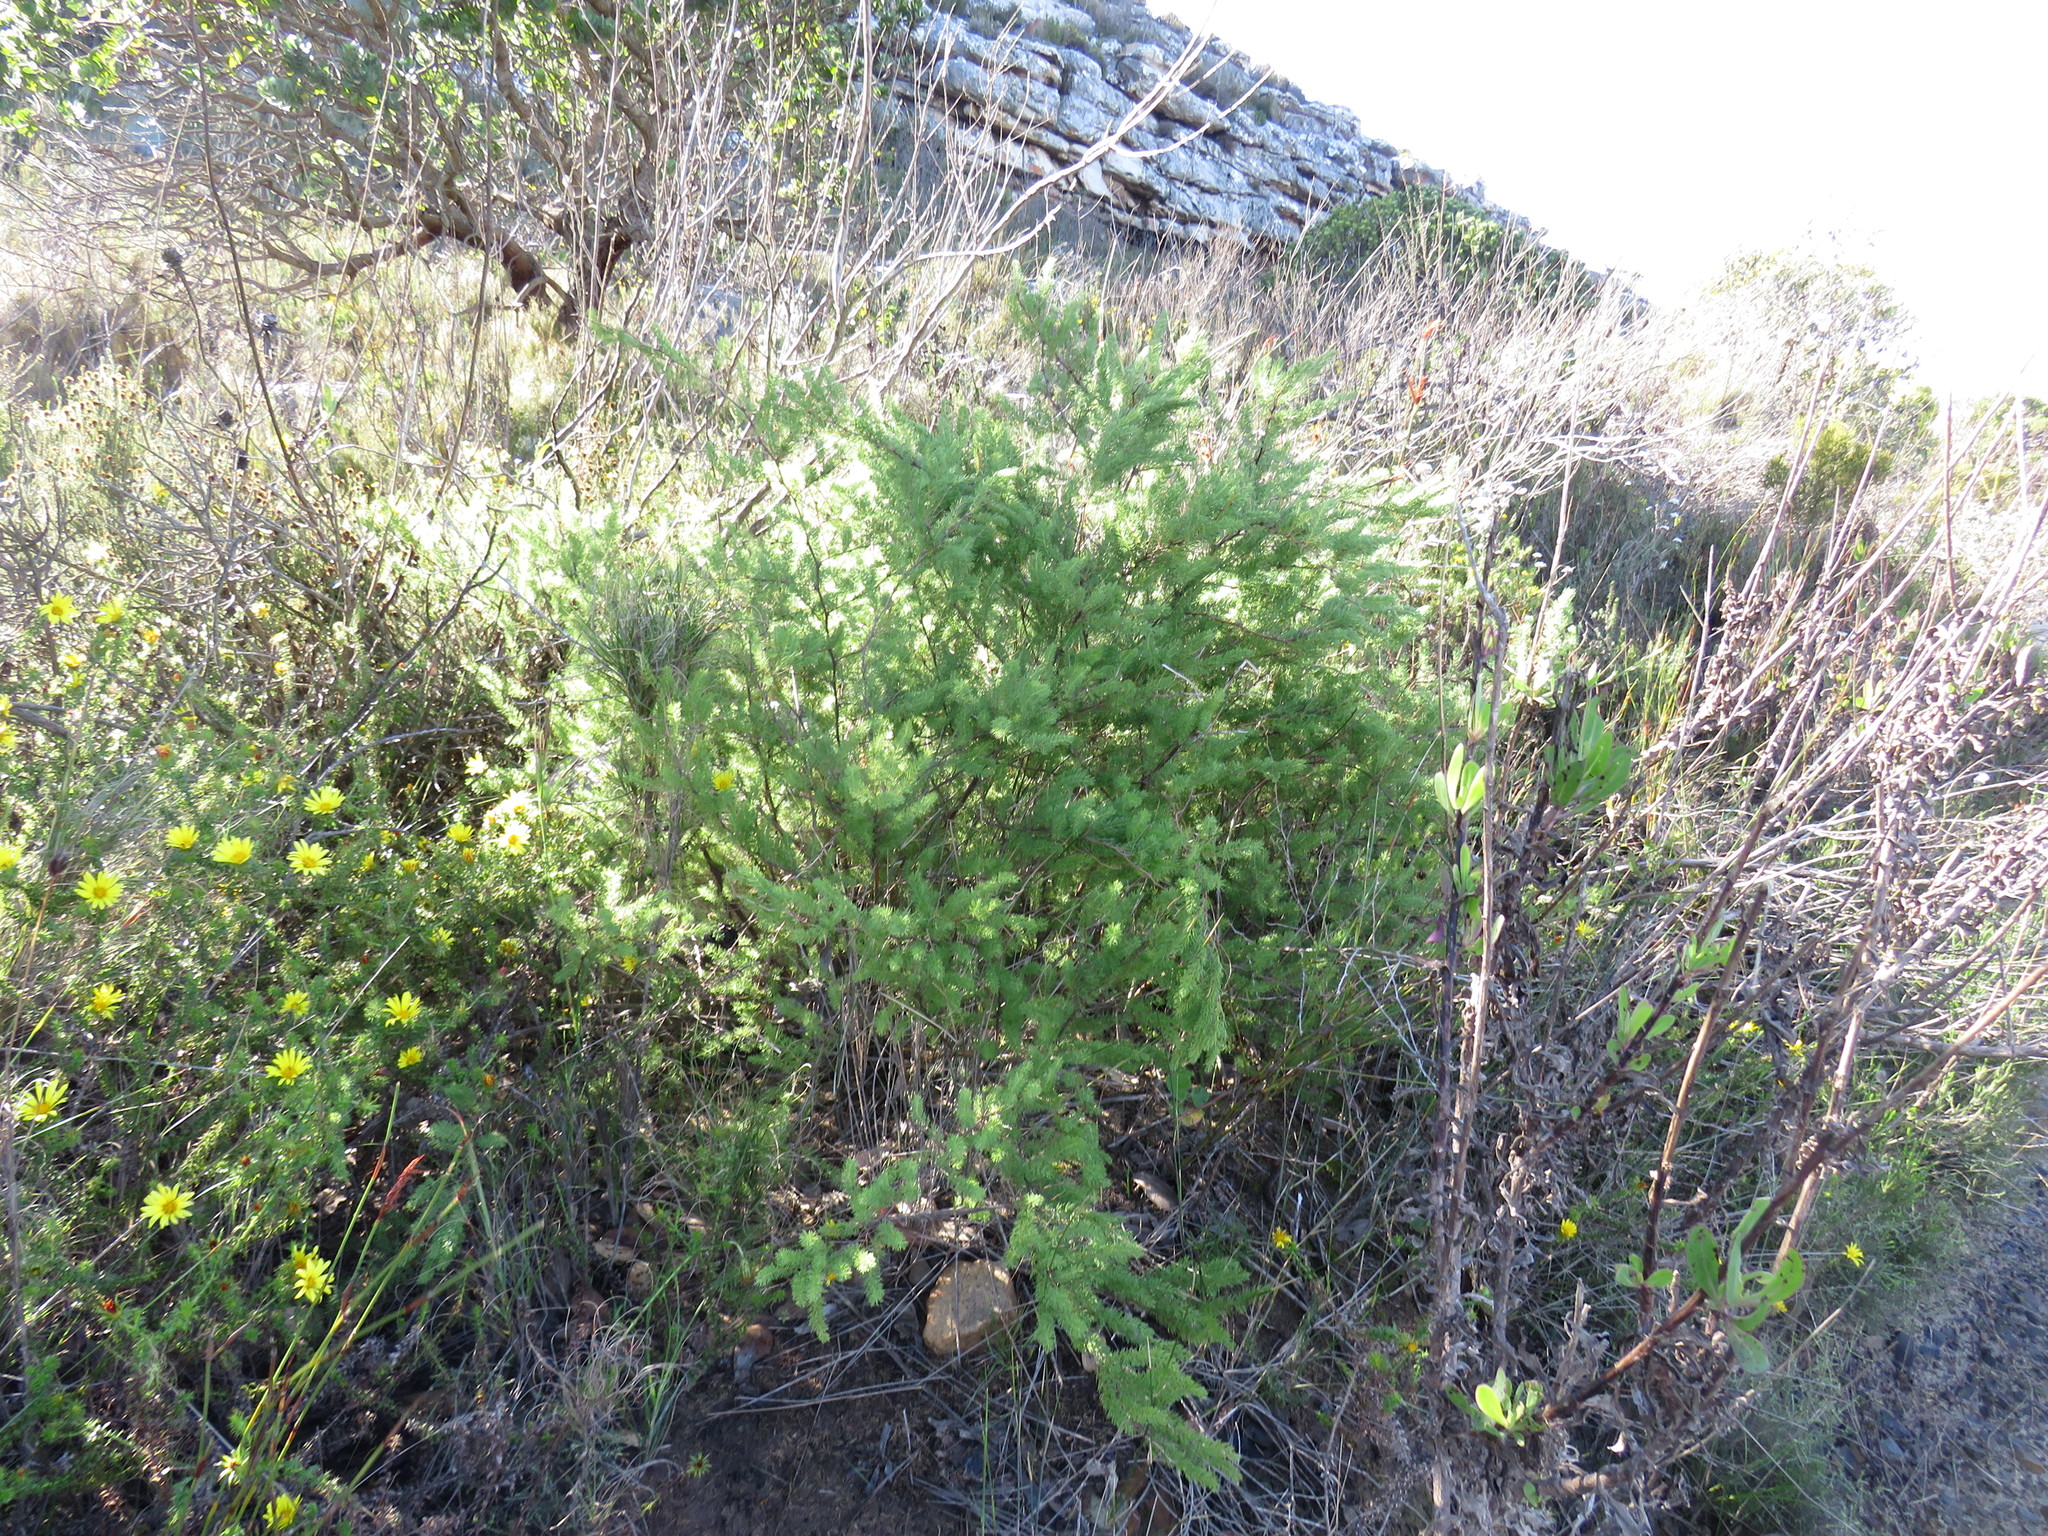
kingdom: Plantae
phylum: Tracheophyta
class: Liliopsida
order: Asparagales
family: Asparagaceae
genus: Asparagus
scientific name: Asparagus rubicundus
